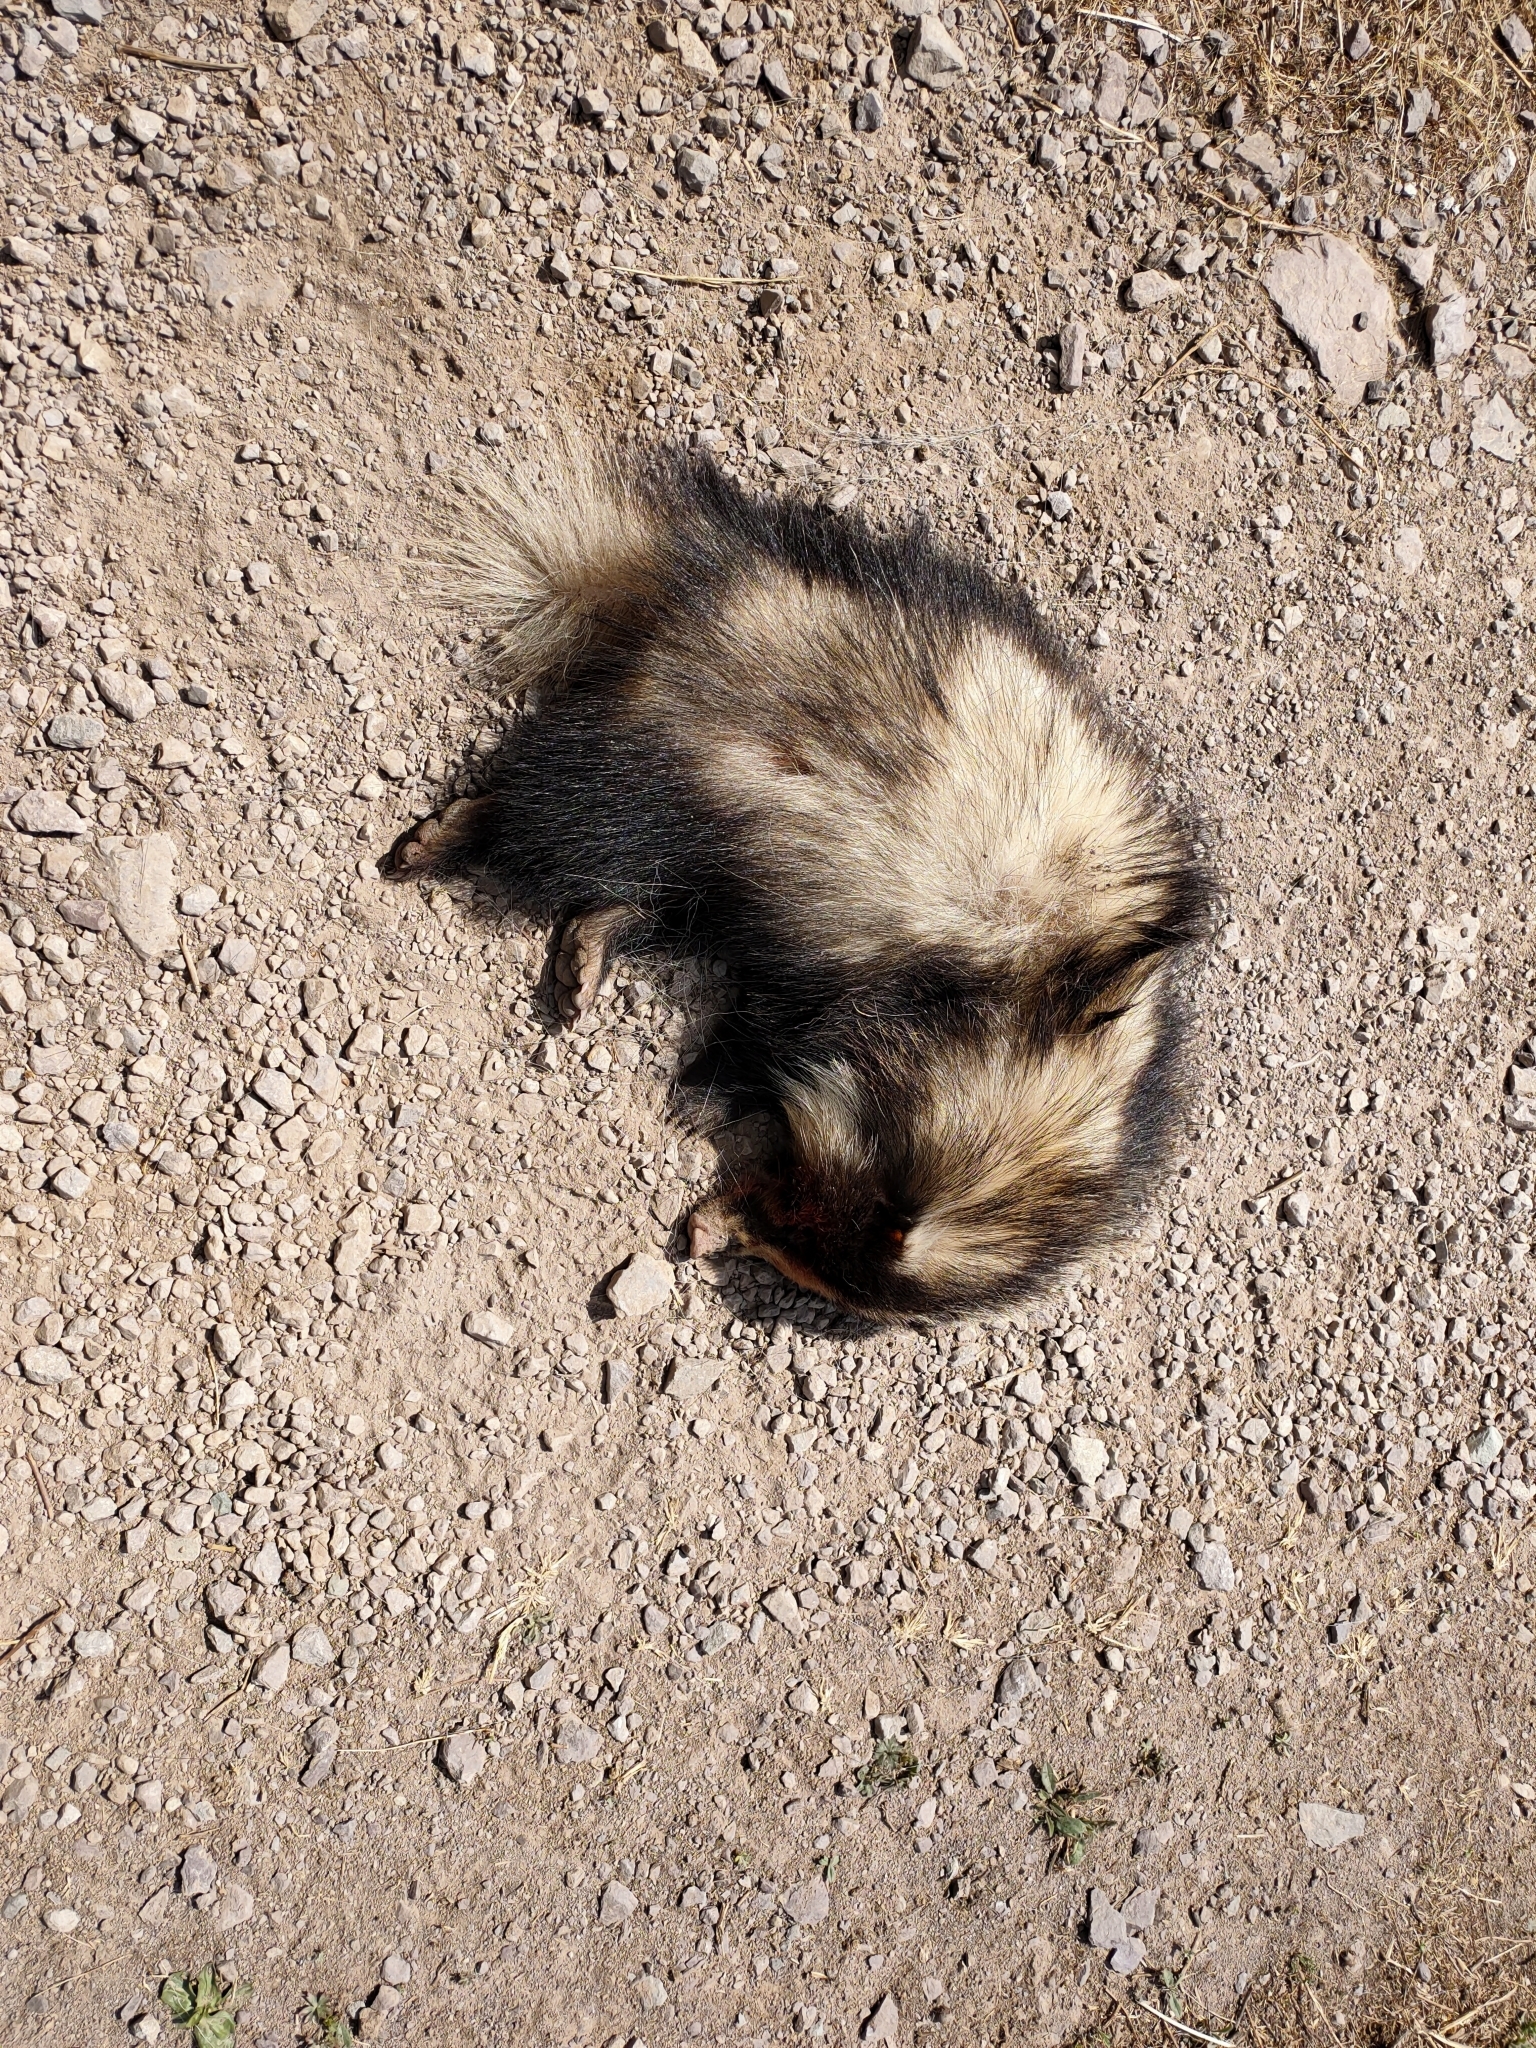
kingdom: Animalia
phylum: Chordata
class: Mammalia
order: Carnivora
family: Mustelidae
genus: Arctonyx
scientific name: Arctonyx albogularis
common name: Northern hog-badger
